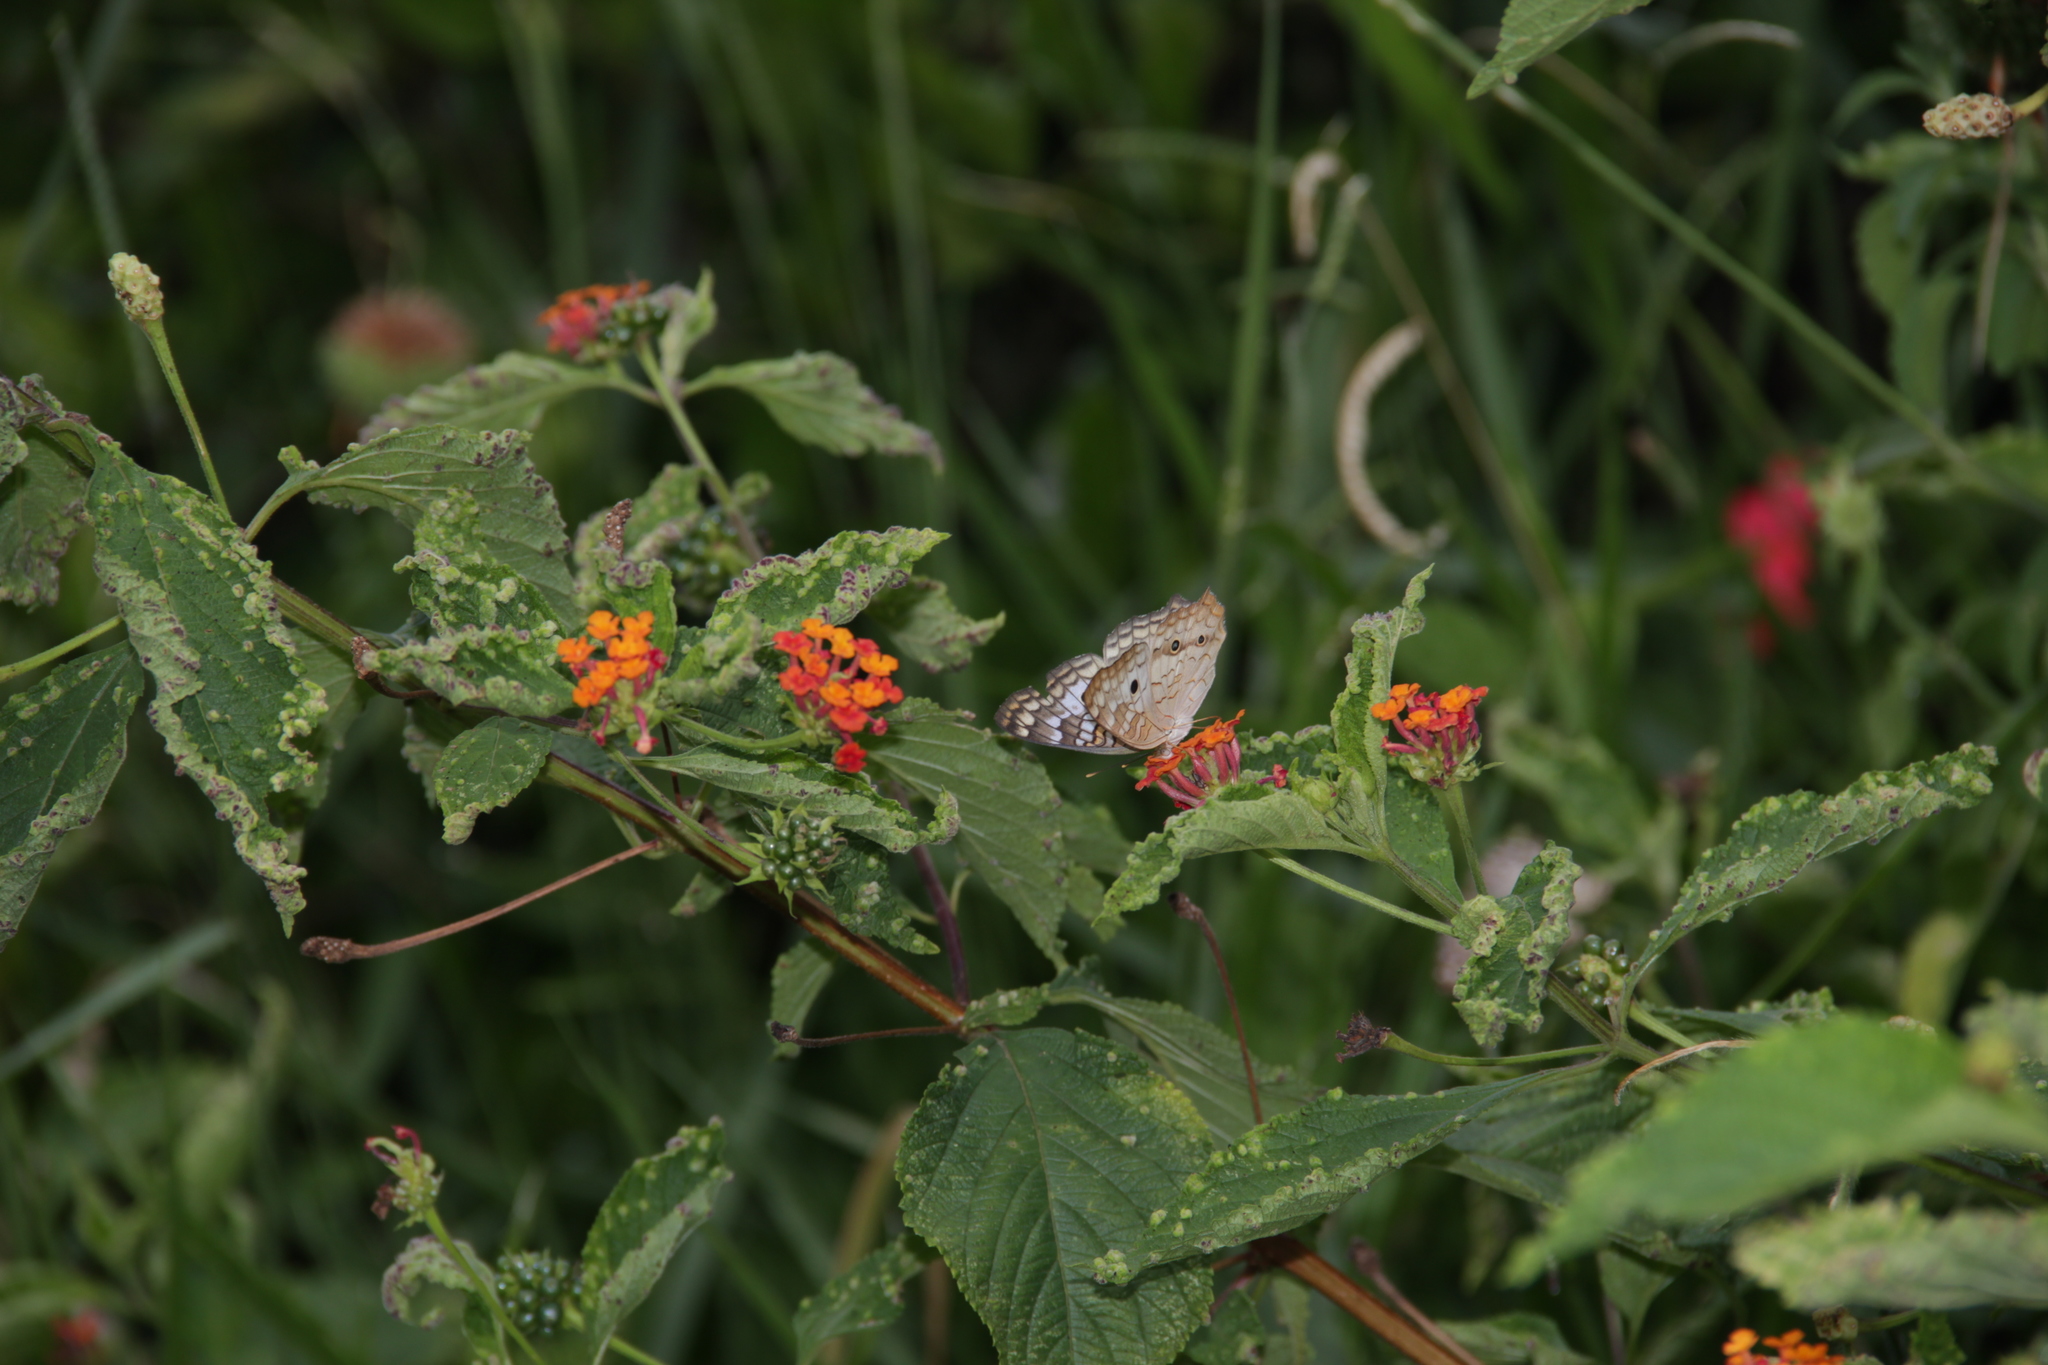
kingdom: Animalia
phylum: Arthropoda
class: Insecta
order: Lepidoptera
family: Nymphalidae
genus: Anartia
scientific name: Anartia jatrophae
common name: White peacock
